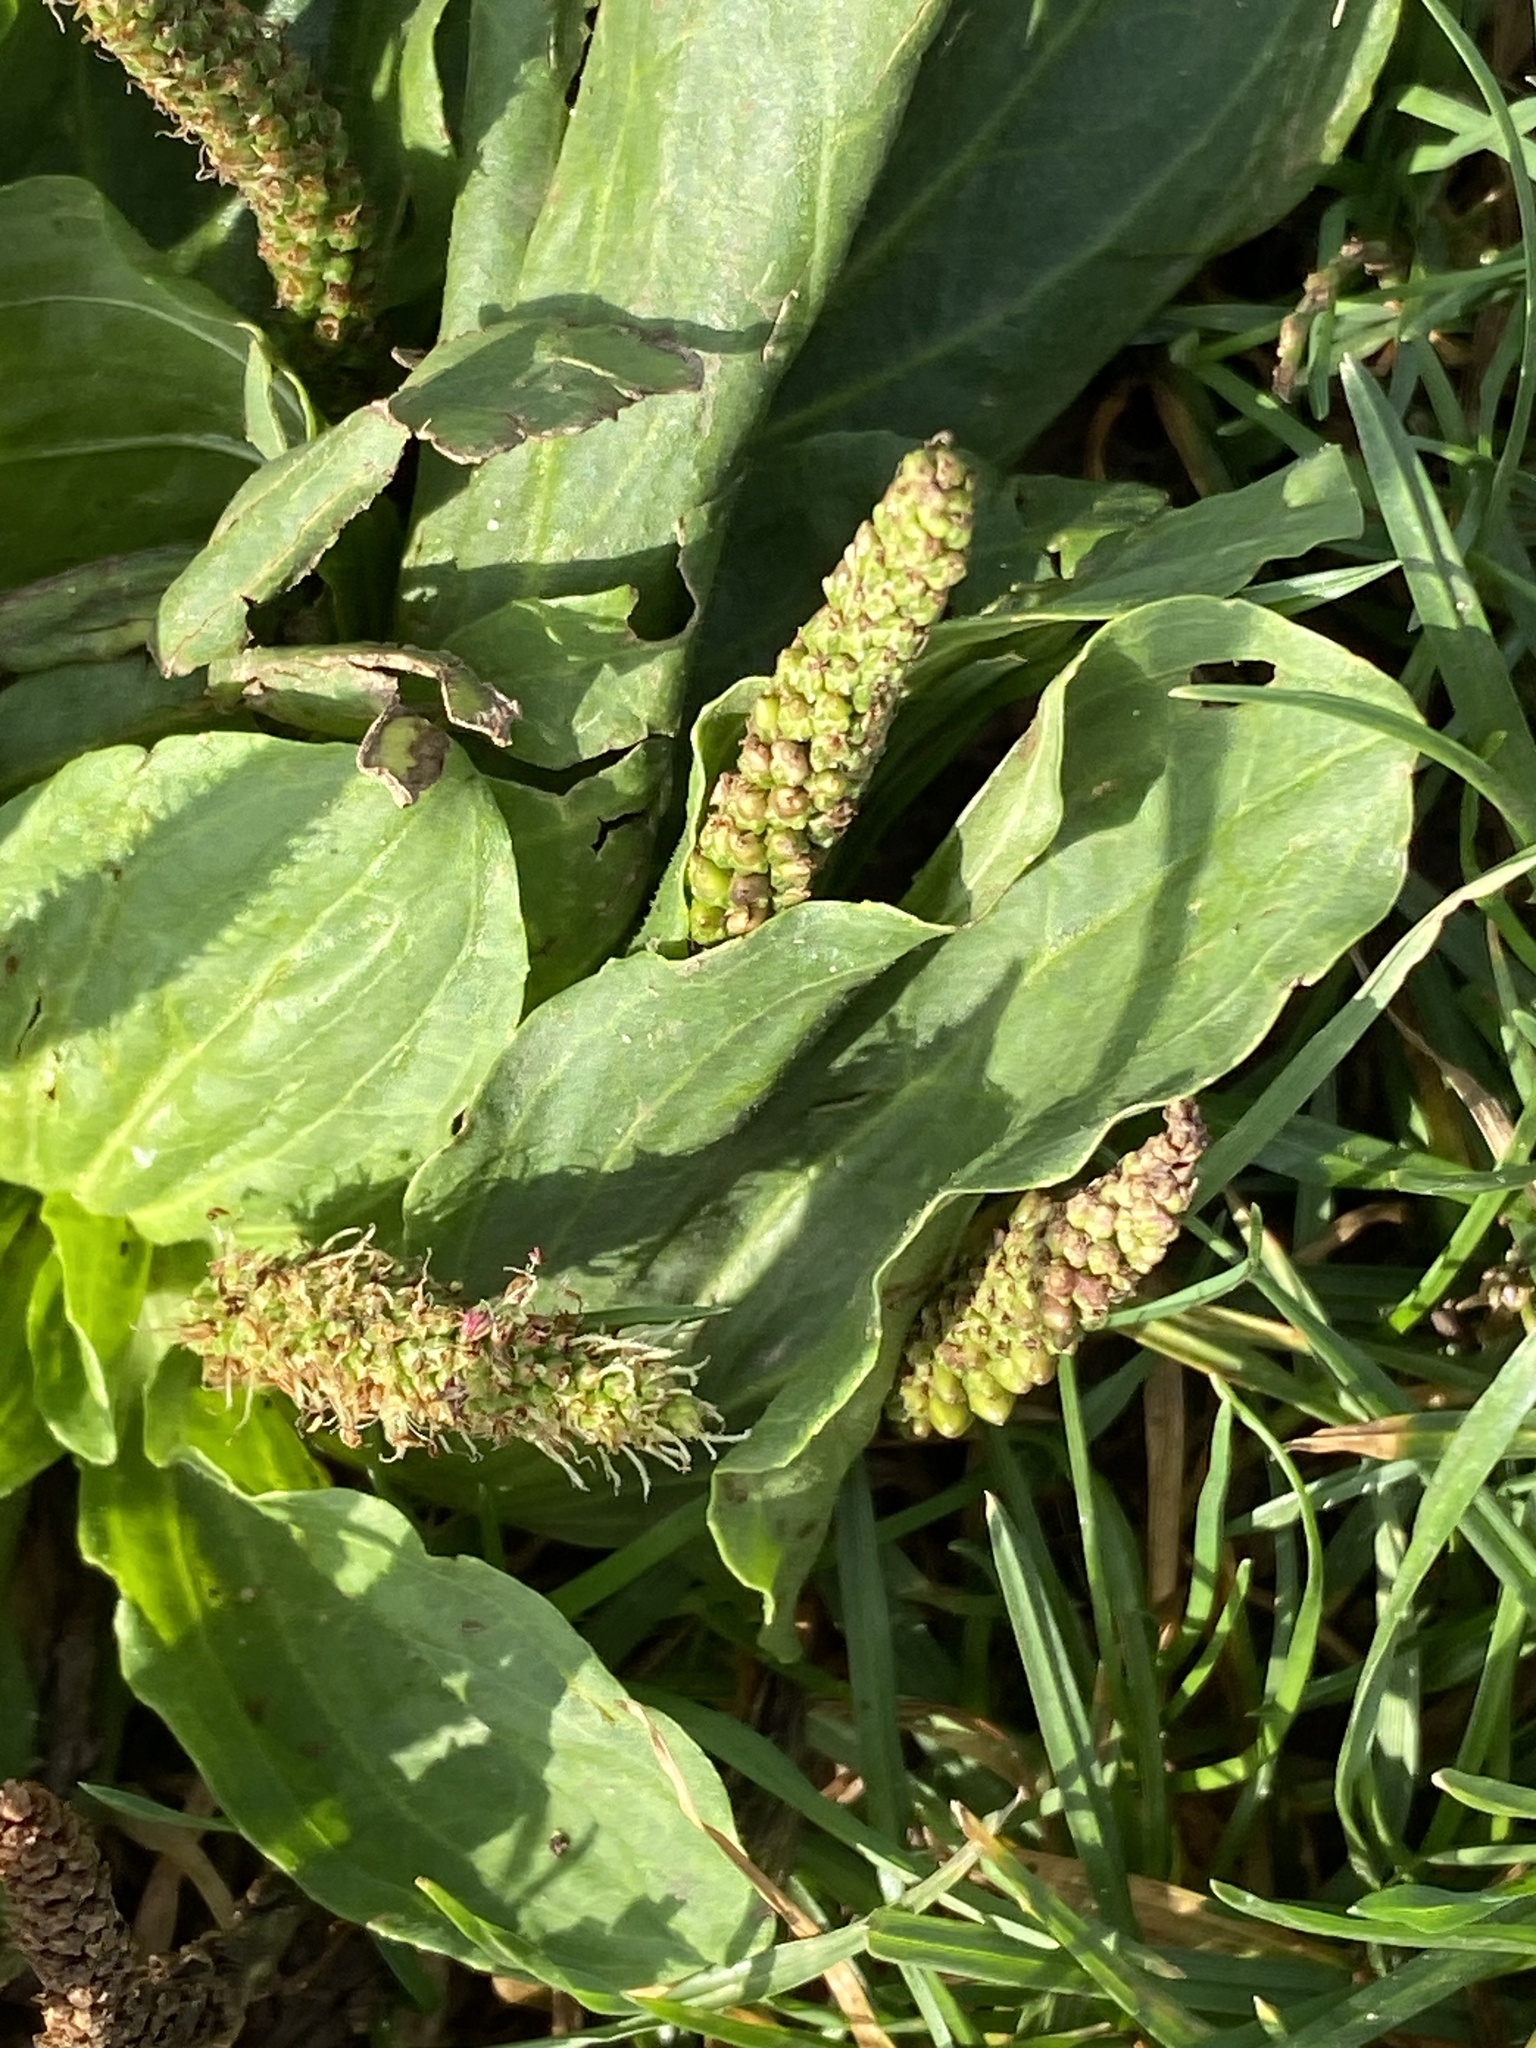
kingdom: Plantae
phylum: Tracheophyta
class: Magnoliopsida
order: Lamiales
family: Plantaginaceae
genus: Plantago
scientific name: Plantago major
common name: Common plantain
